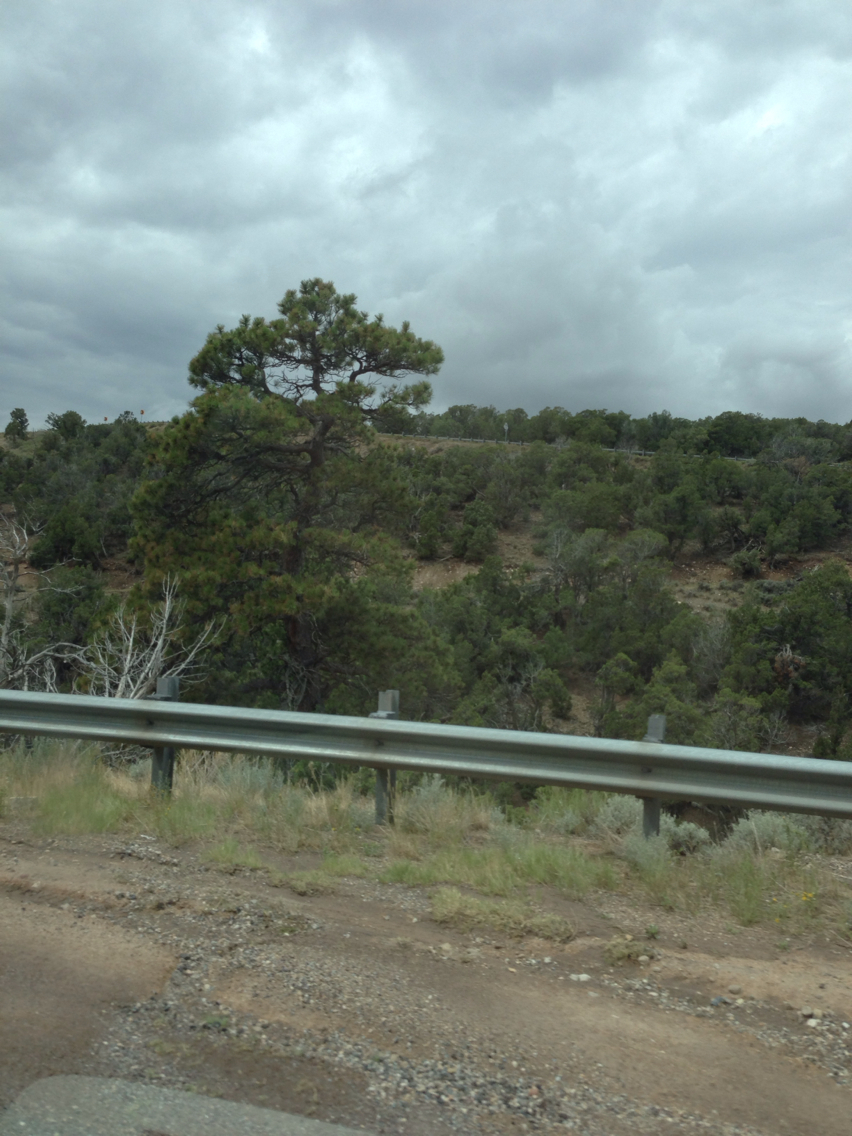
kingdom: Plantae
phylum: Tracheophyta
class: Pinopsida
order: Pinales
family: Pinaceae
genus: Pinus
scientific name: Pinus ponderosa
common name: Western yellow-pine
